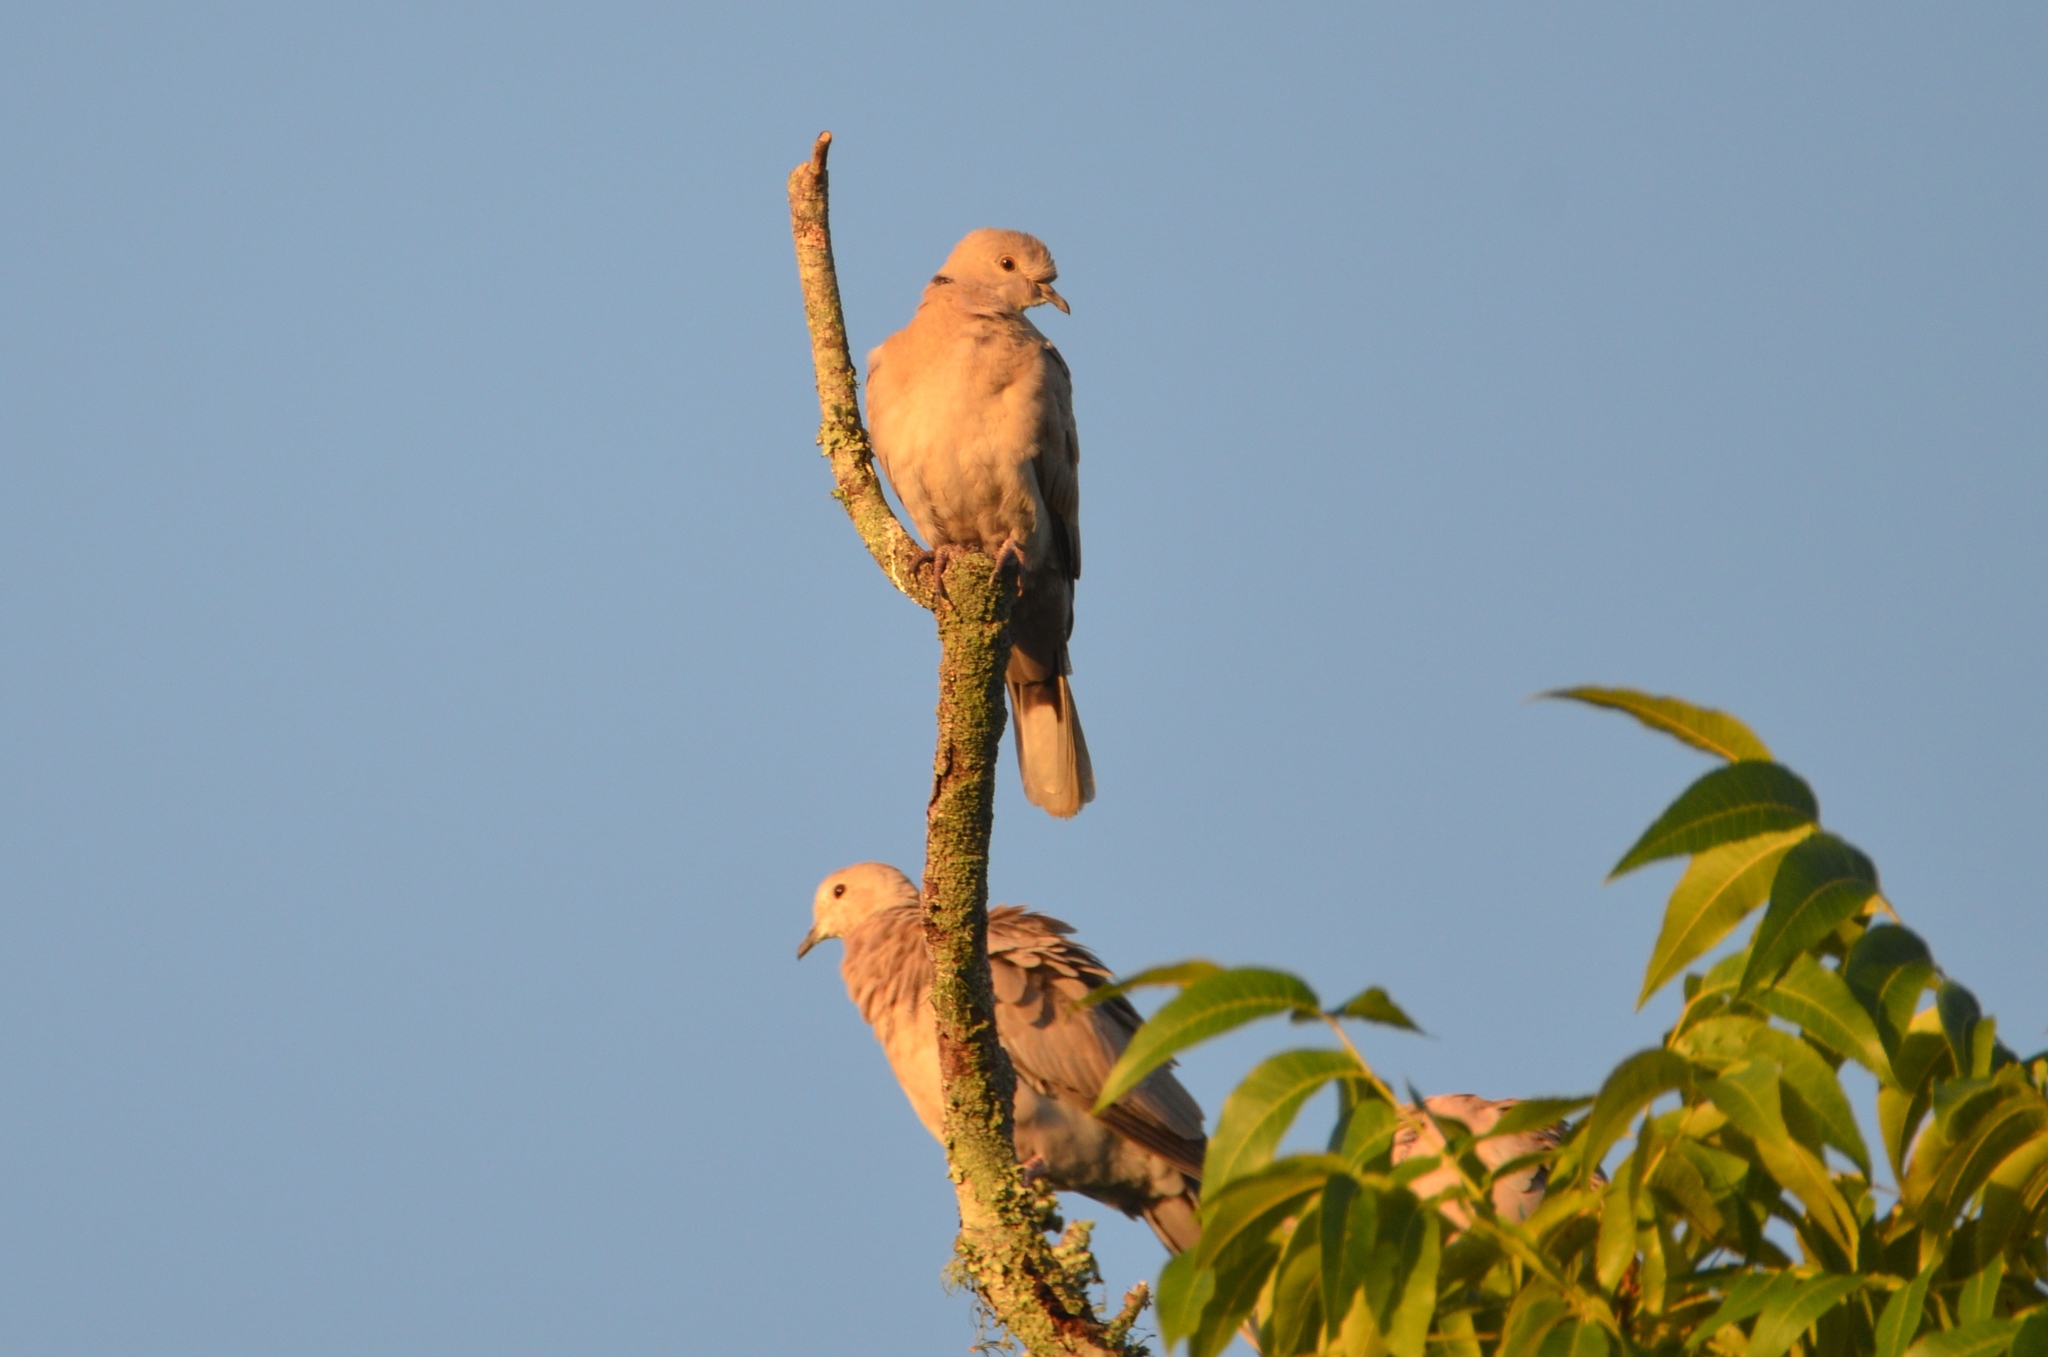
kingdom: Animalia
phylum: Chordata
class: Aves
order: Columbiformes
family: Columbidae
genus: Streptopelia
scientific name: Streptopelia decaocto
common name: Eurasian collared dove
